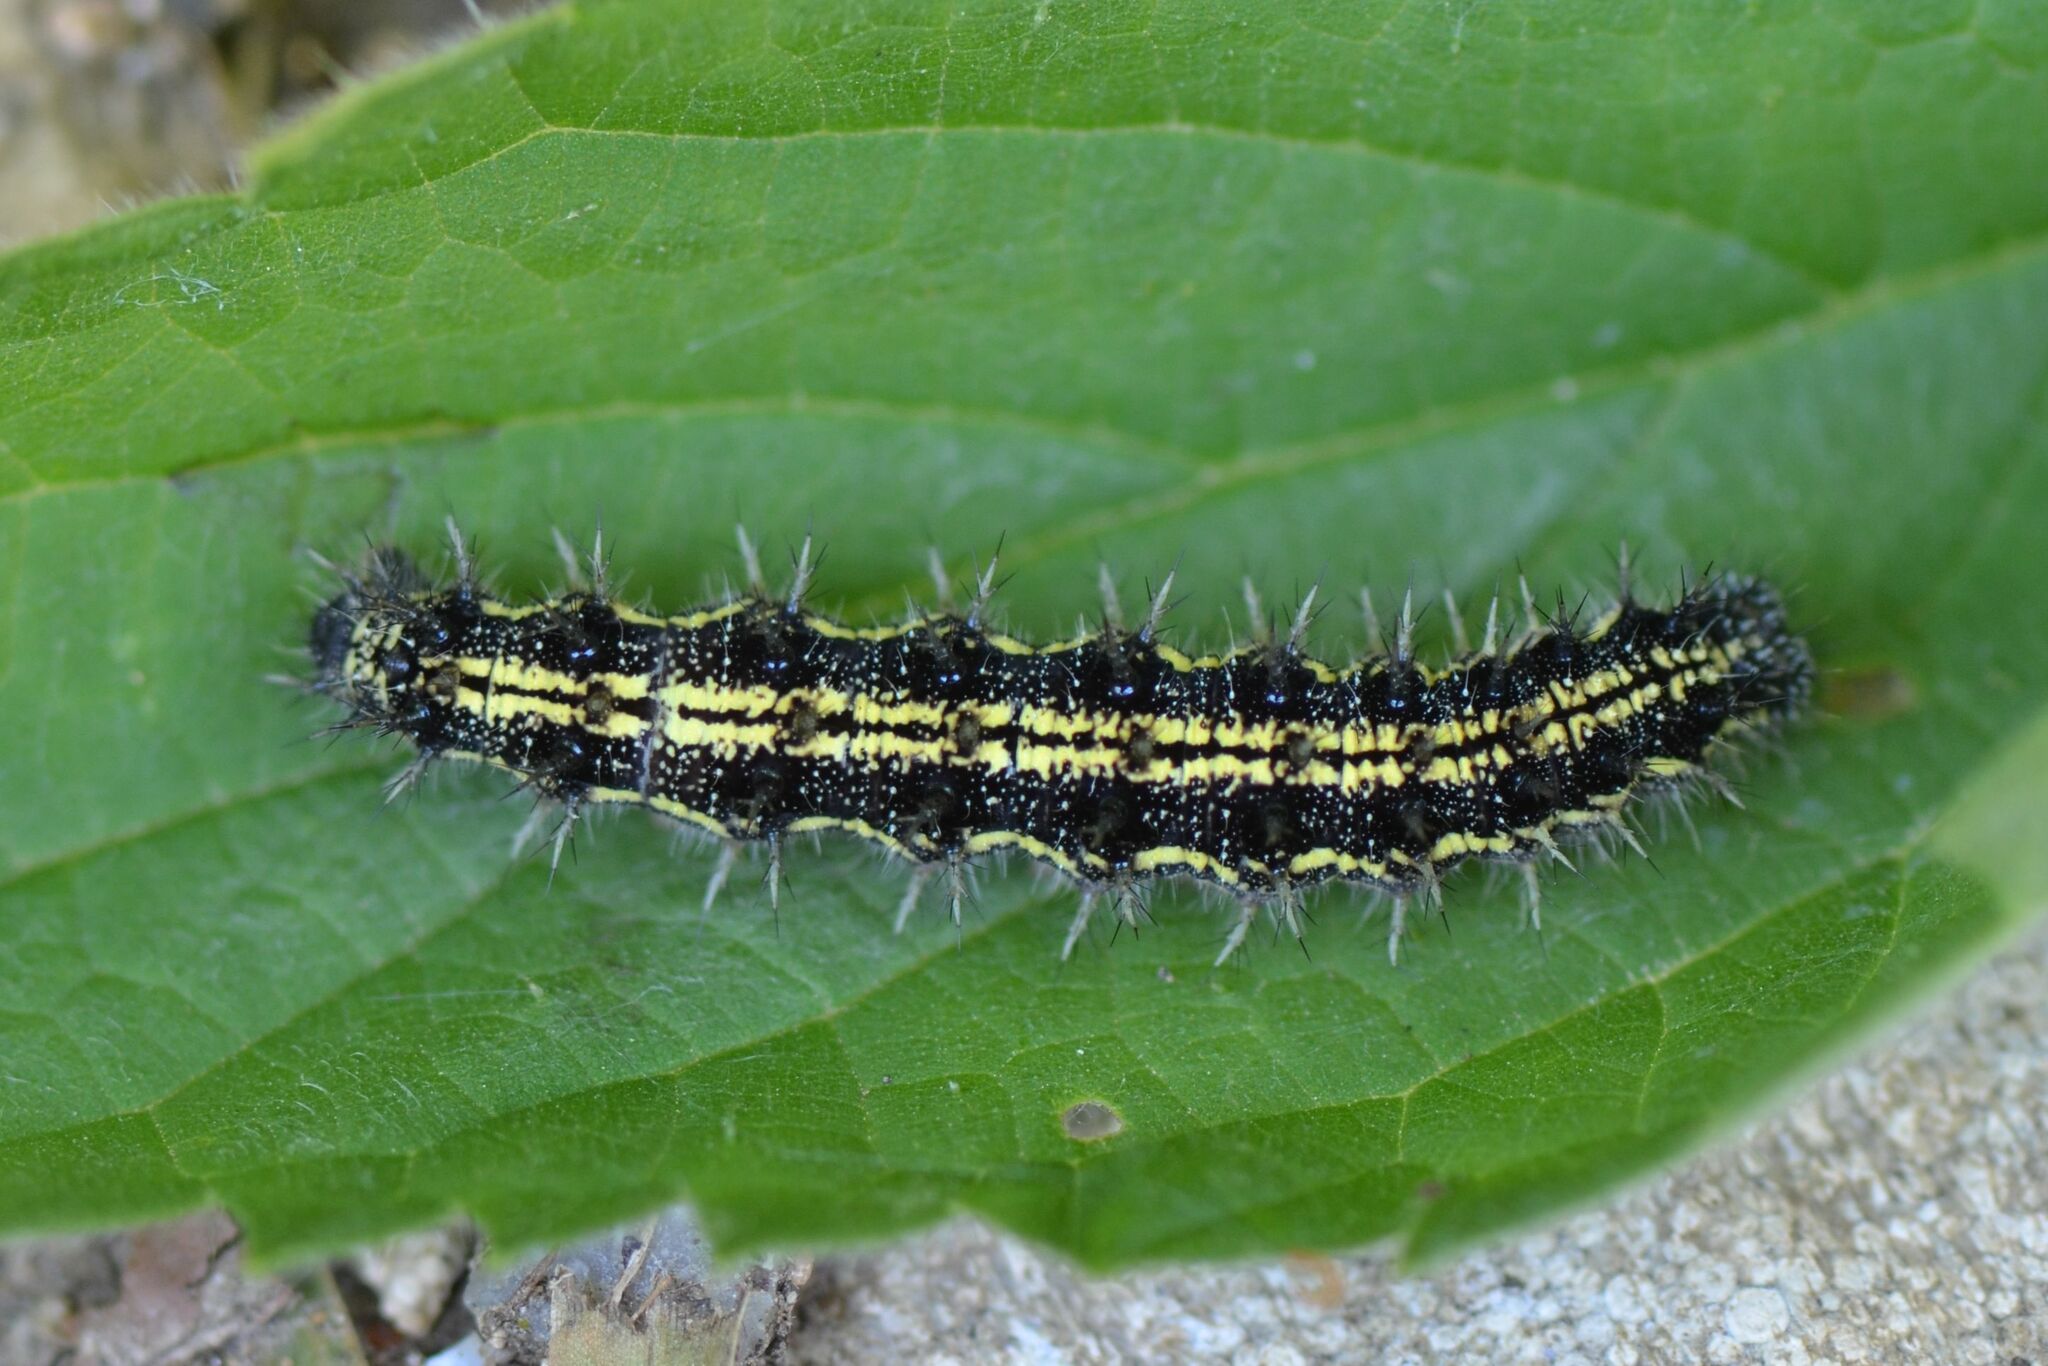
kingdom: Animalia
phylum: Arthropoda
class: Insecta
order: Lepidoptera
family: Nymphalidae
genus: Aglais
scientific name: Aglais urticae
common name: Small tortoiseshell
